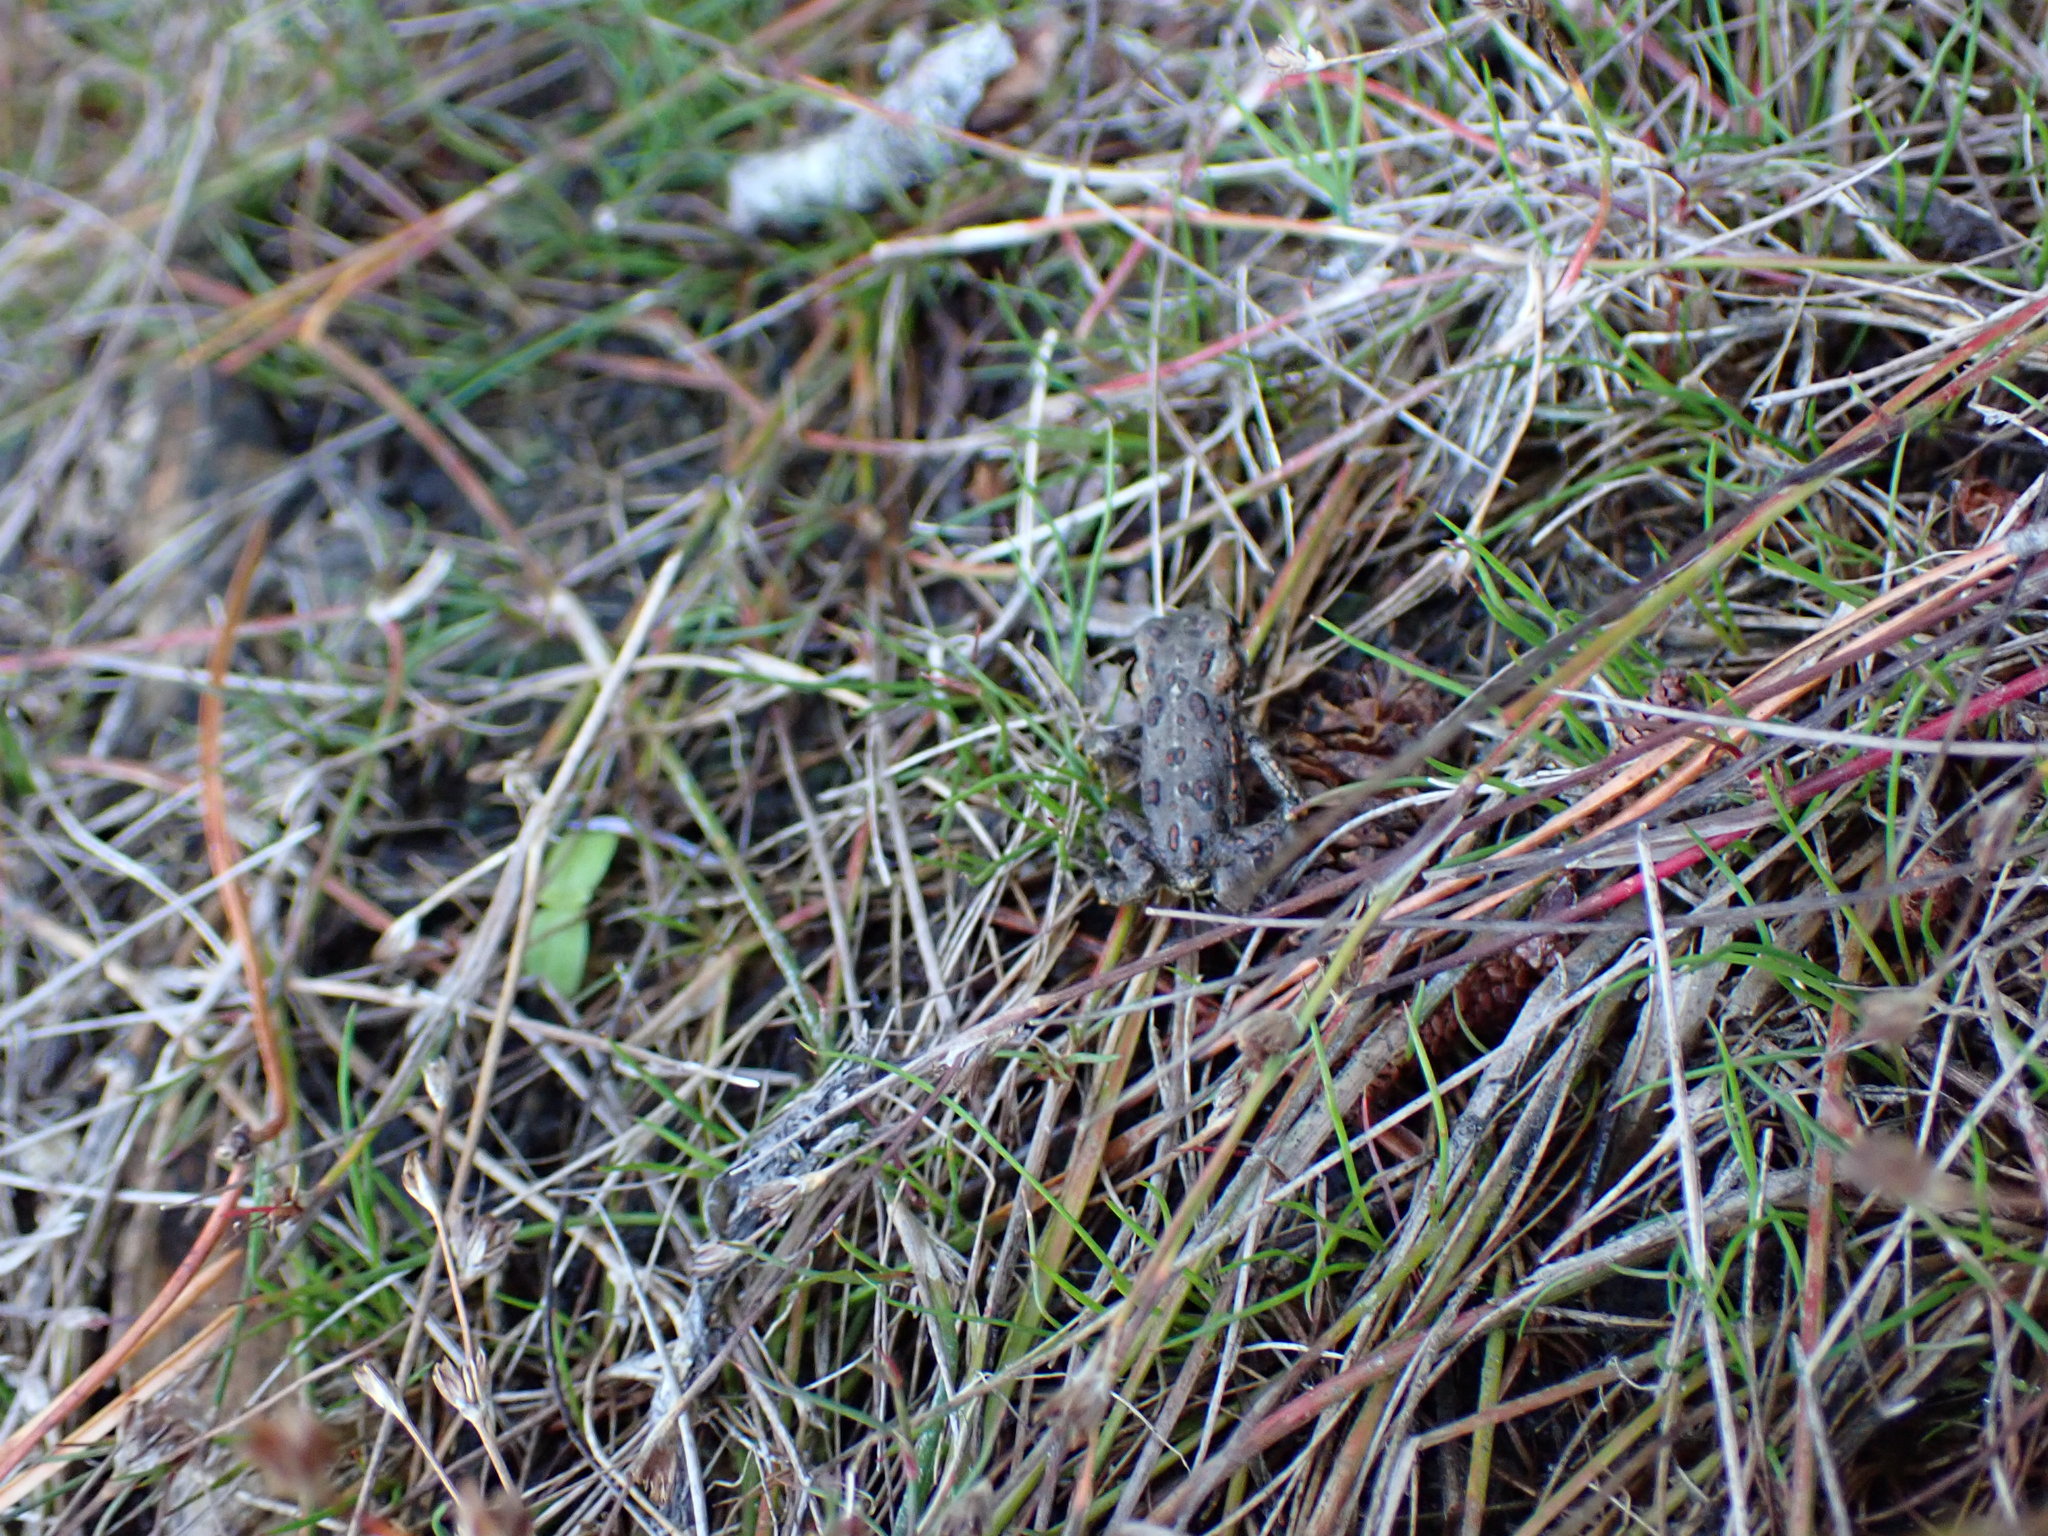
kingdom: Animalia
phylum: Chordata
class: Amphibia
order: Anura
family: Bufonidae
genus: Anaxyrus
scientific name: Anaxyrus boreas
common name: Western toad
